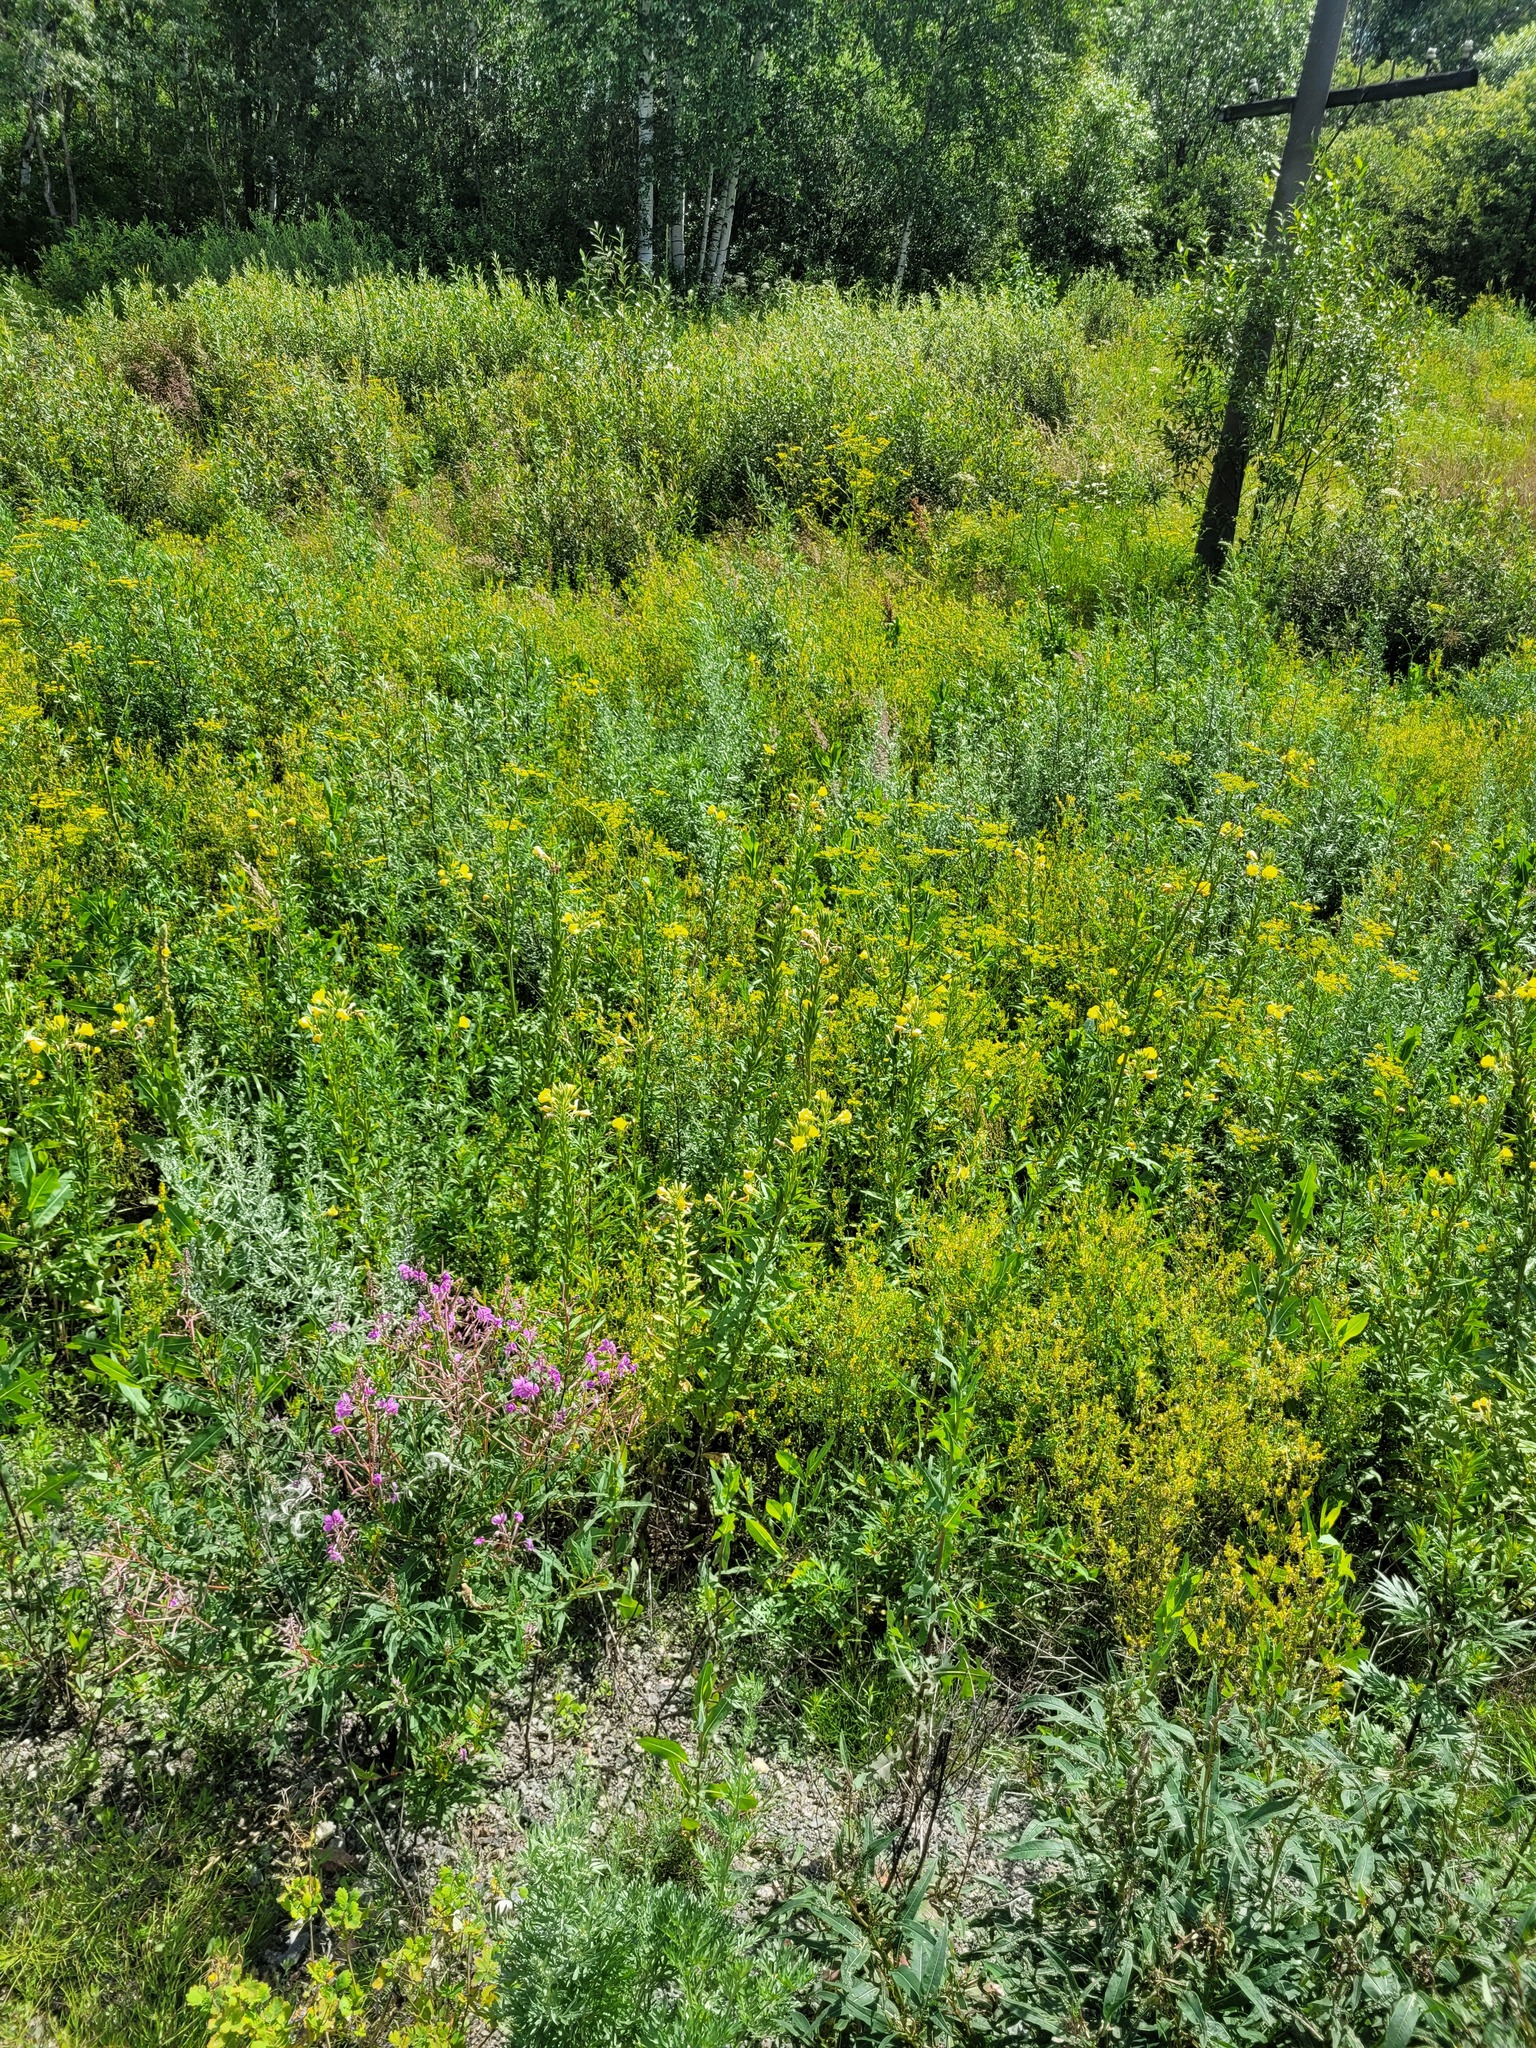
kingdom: Plantae
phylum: Tracheophyta
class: Magnoliopsida
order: Myrtales
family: Onagraceae
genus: Oenothera
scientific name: Oenothera biennis
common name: Common evening-primrose
